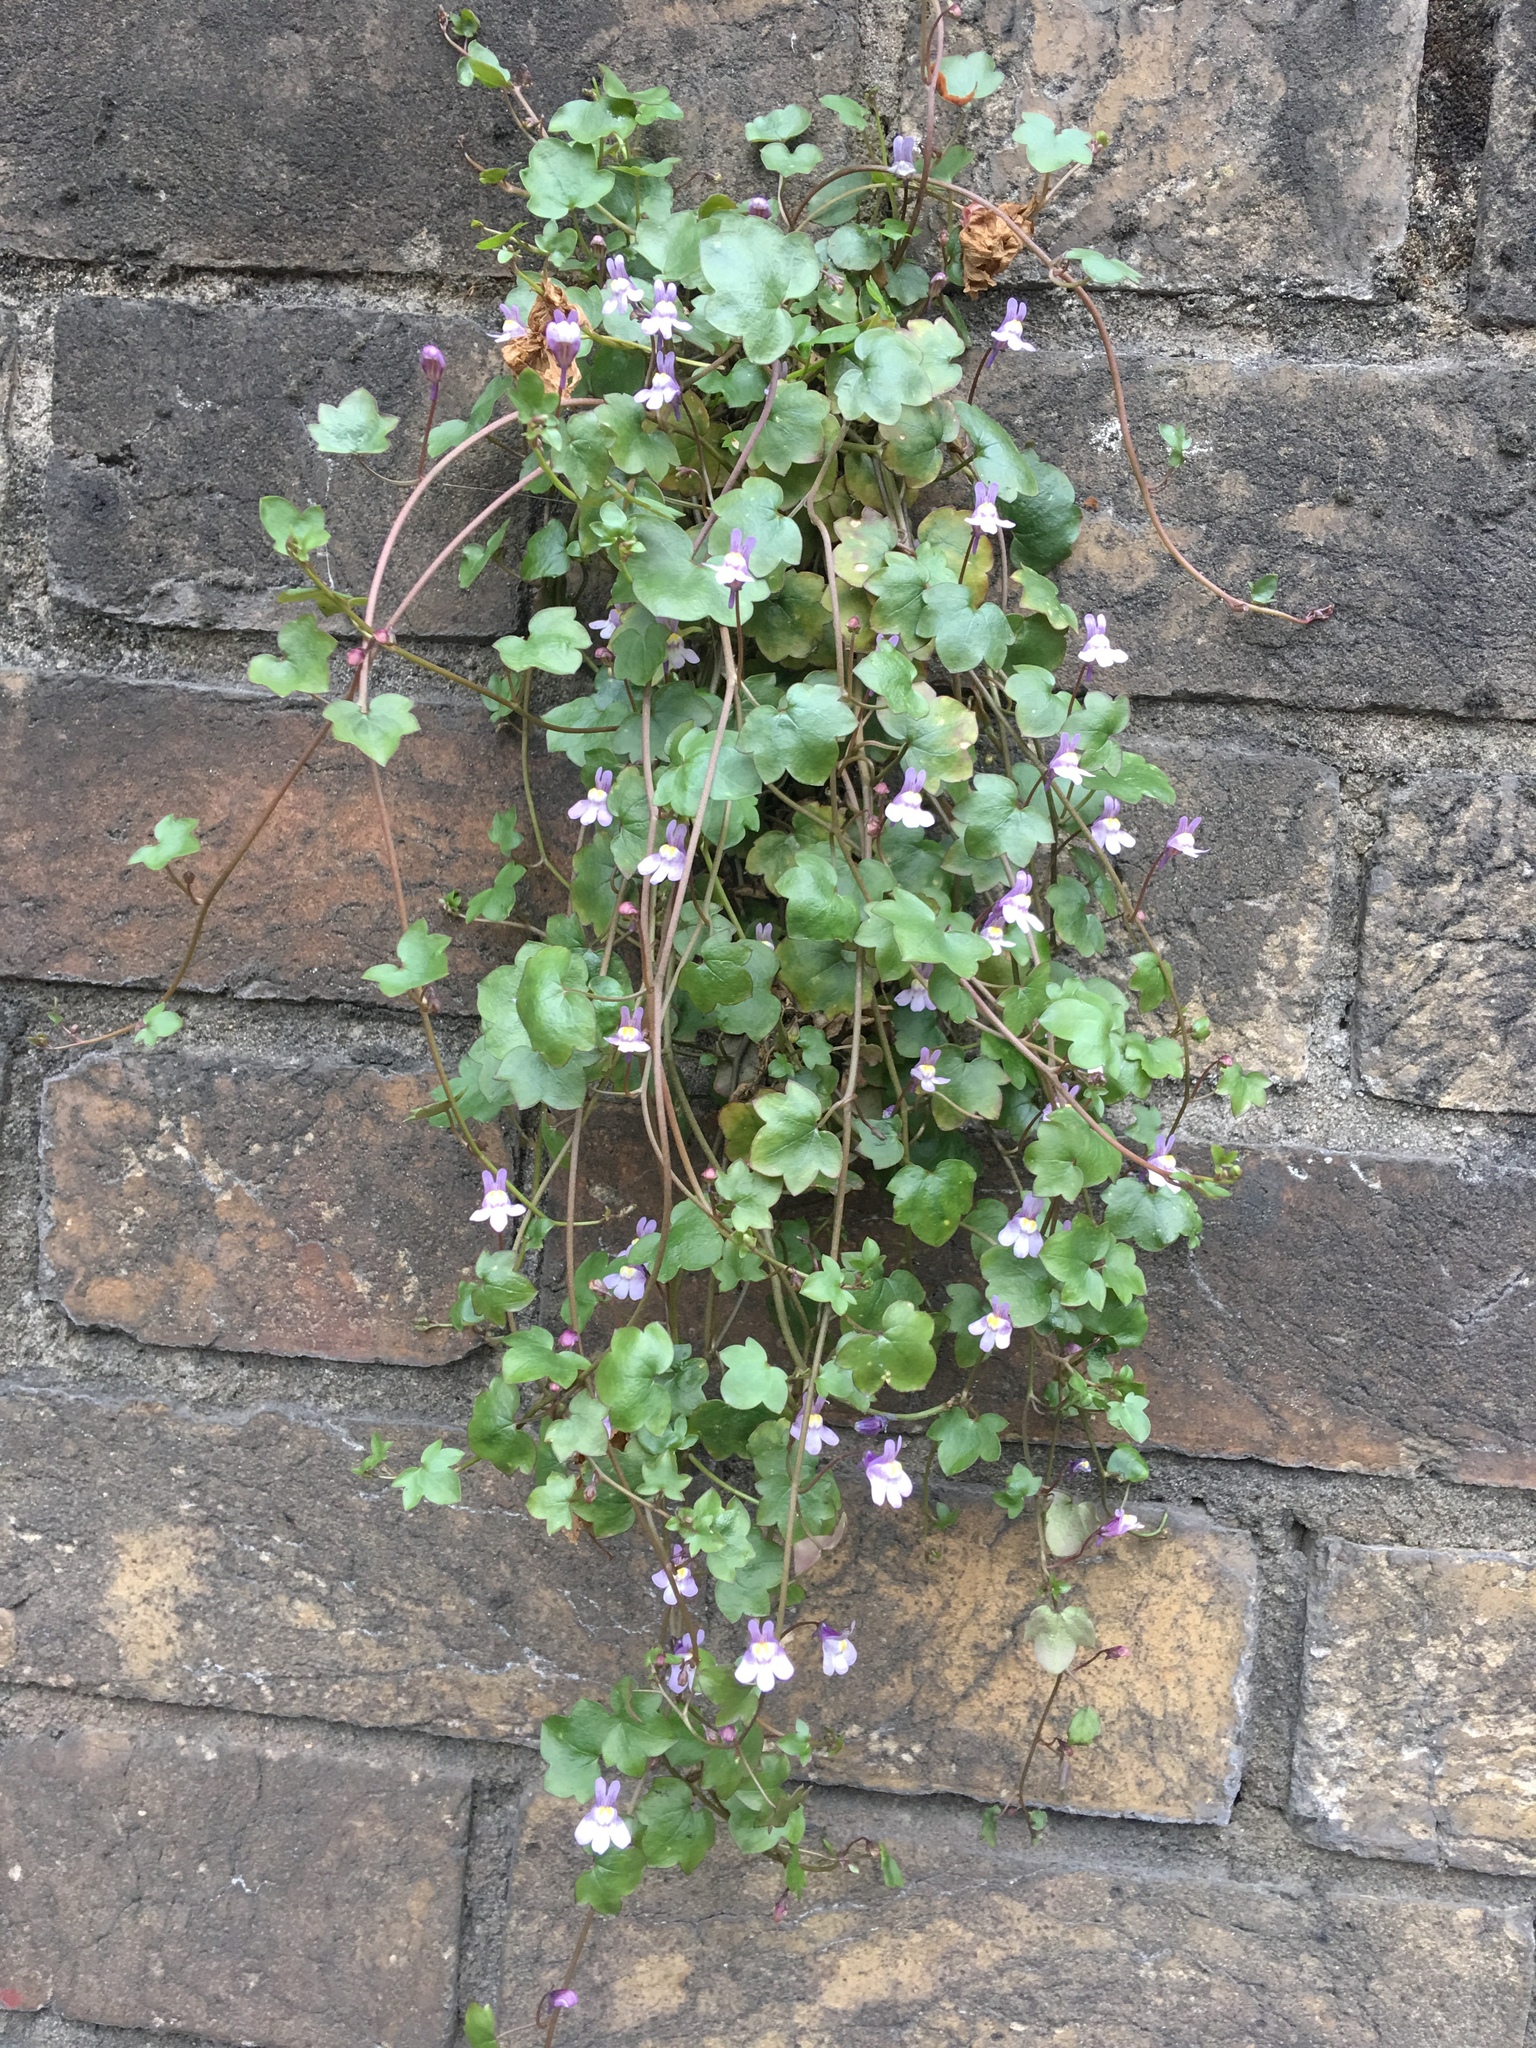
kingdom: Plantae
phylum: Tracheophyta
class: Magnoliopsida
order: Lamiales
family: Plantaginaceae
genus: Cymbalaria
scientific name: Cymbalaria muralis
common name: Ivy-leaved toadflax
